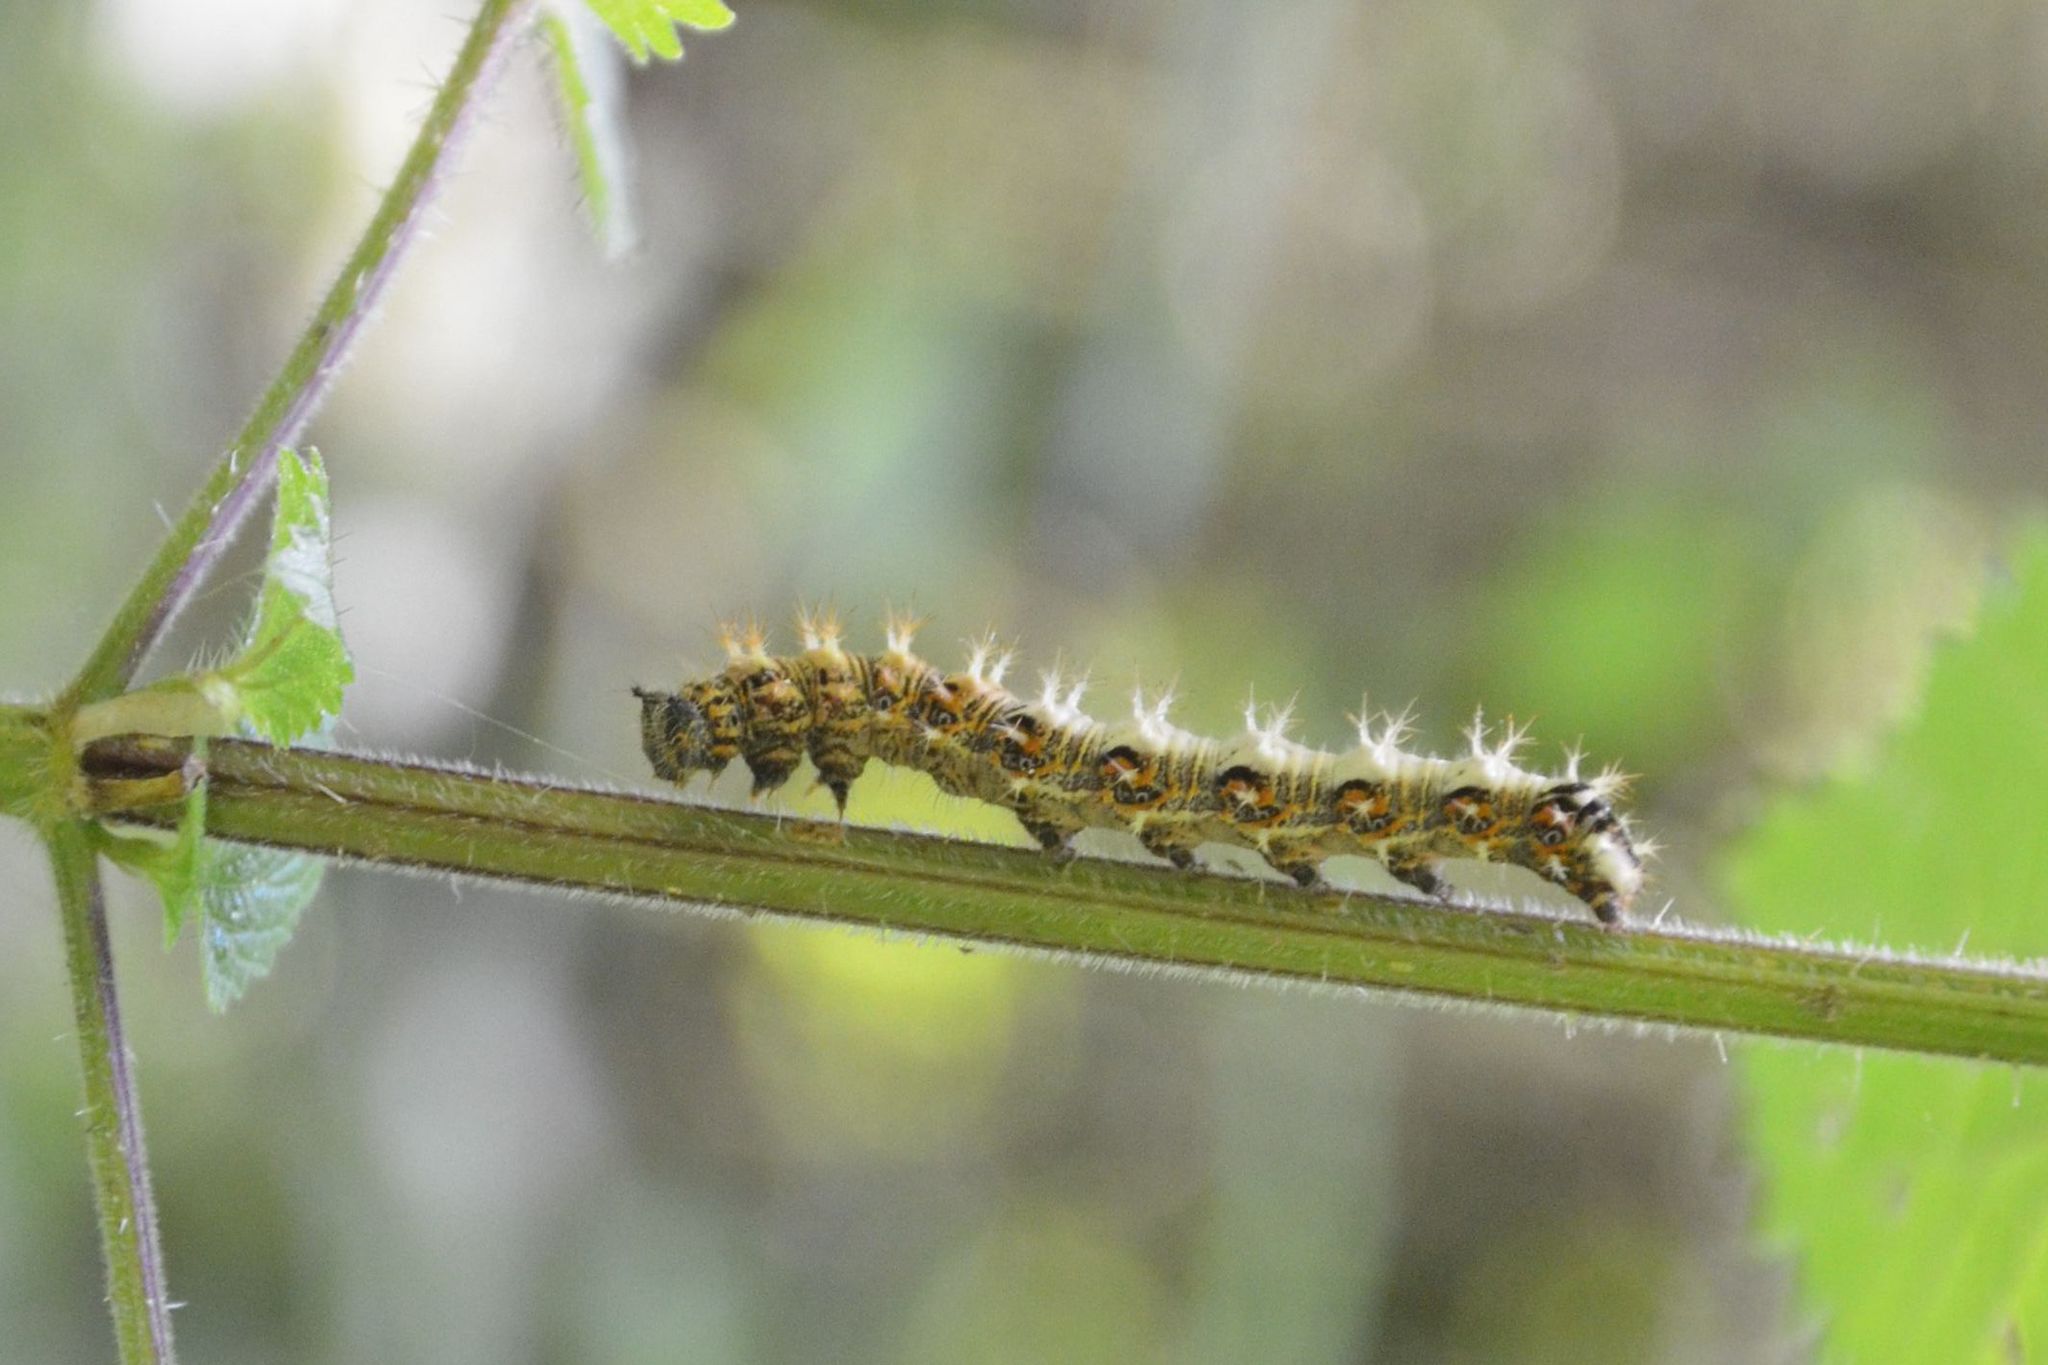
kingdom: Animalia
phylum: Arthropoda
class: Insecta
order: Lepidoptera
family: Nymphalidae
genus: Polygonia
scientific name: Polygonia c-album
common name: Comma
